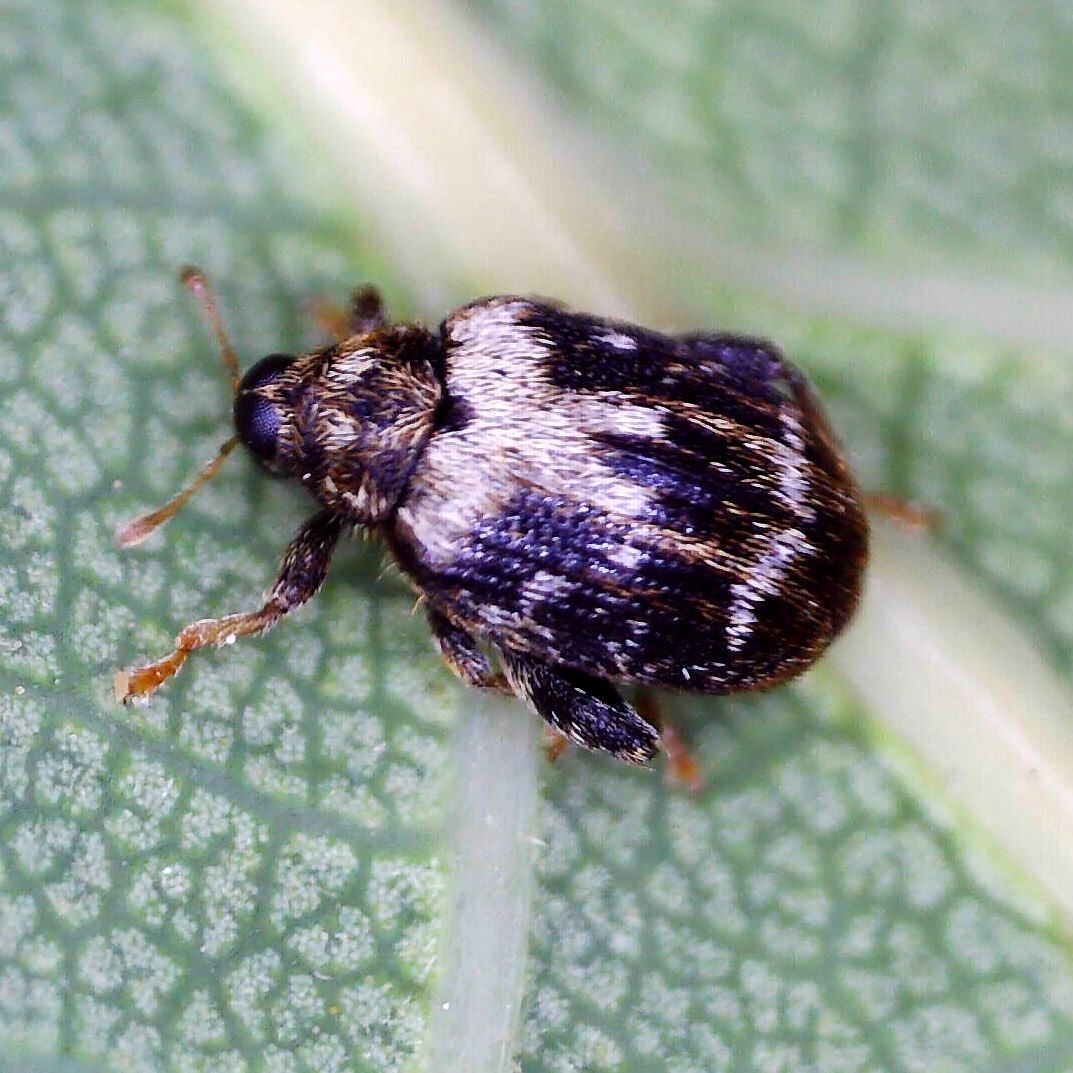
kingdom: Animalia
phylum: Arthropoda
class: Insecta
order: Coleoptera
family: Curculionidae
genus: Orchestes
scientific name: Orchestes hortorum
